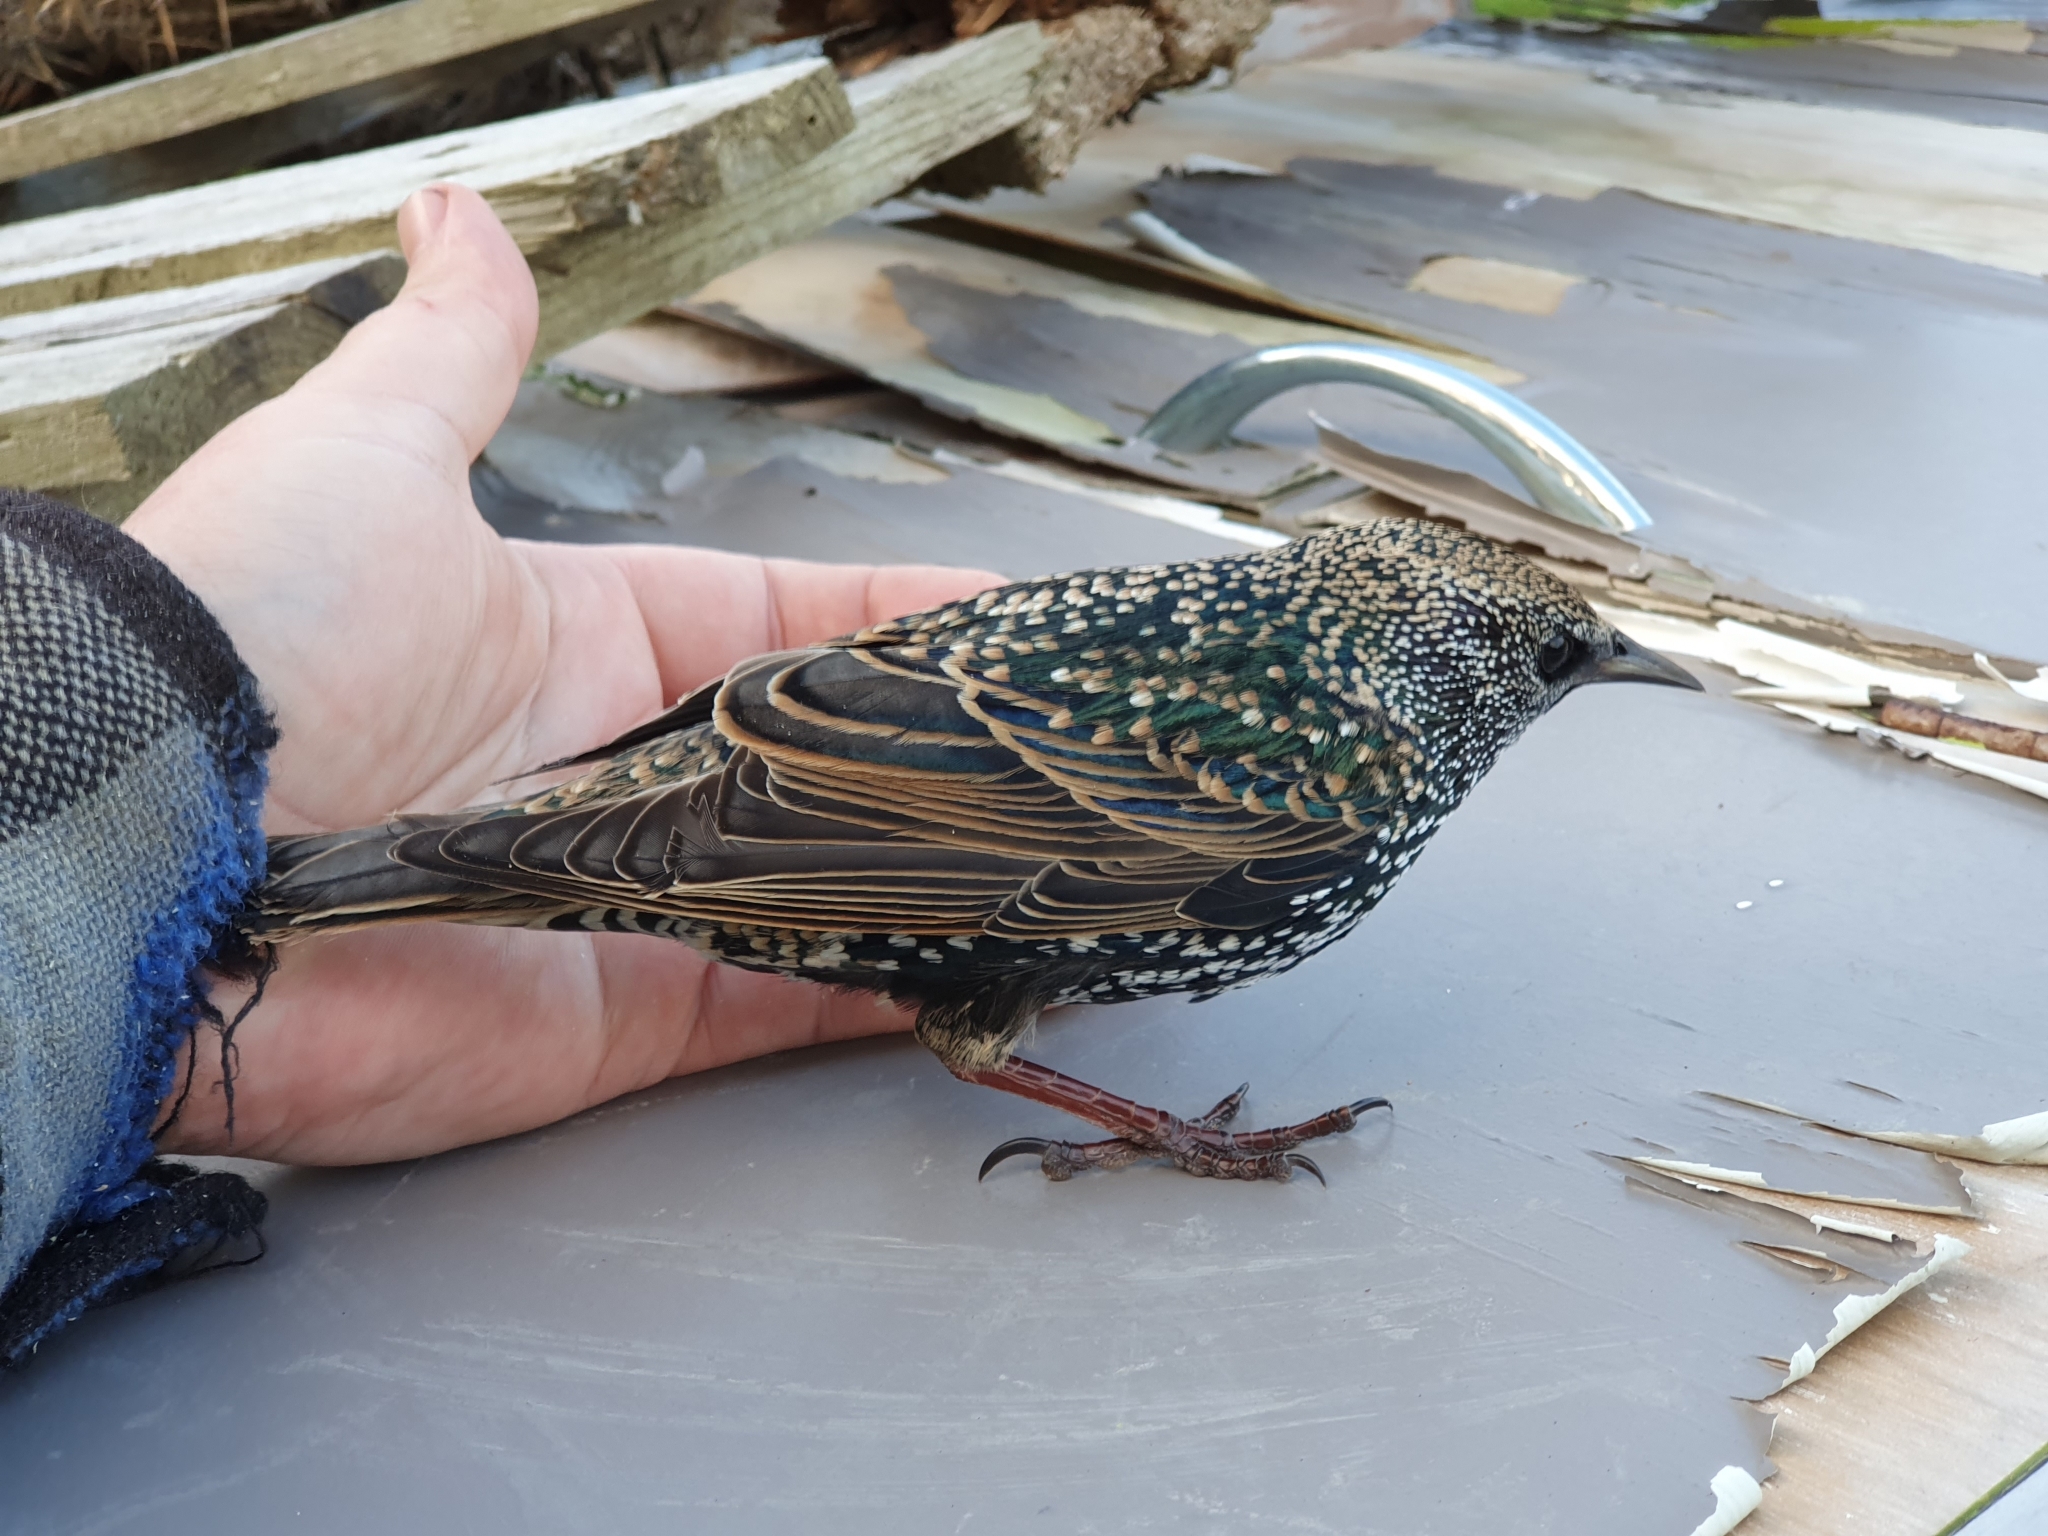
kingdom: Animalia
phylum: Chordata
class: Aves
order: Passeriformes
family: Sturnidae
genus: Sturnus
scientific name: Sturnus vulgaris
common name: Common starling
